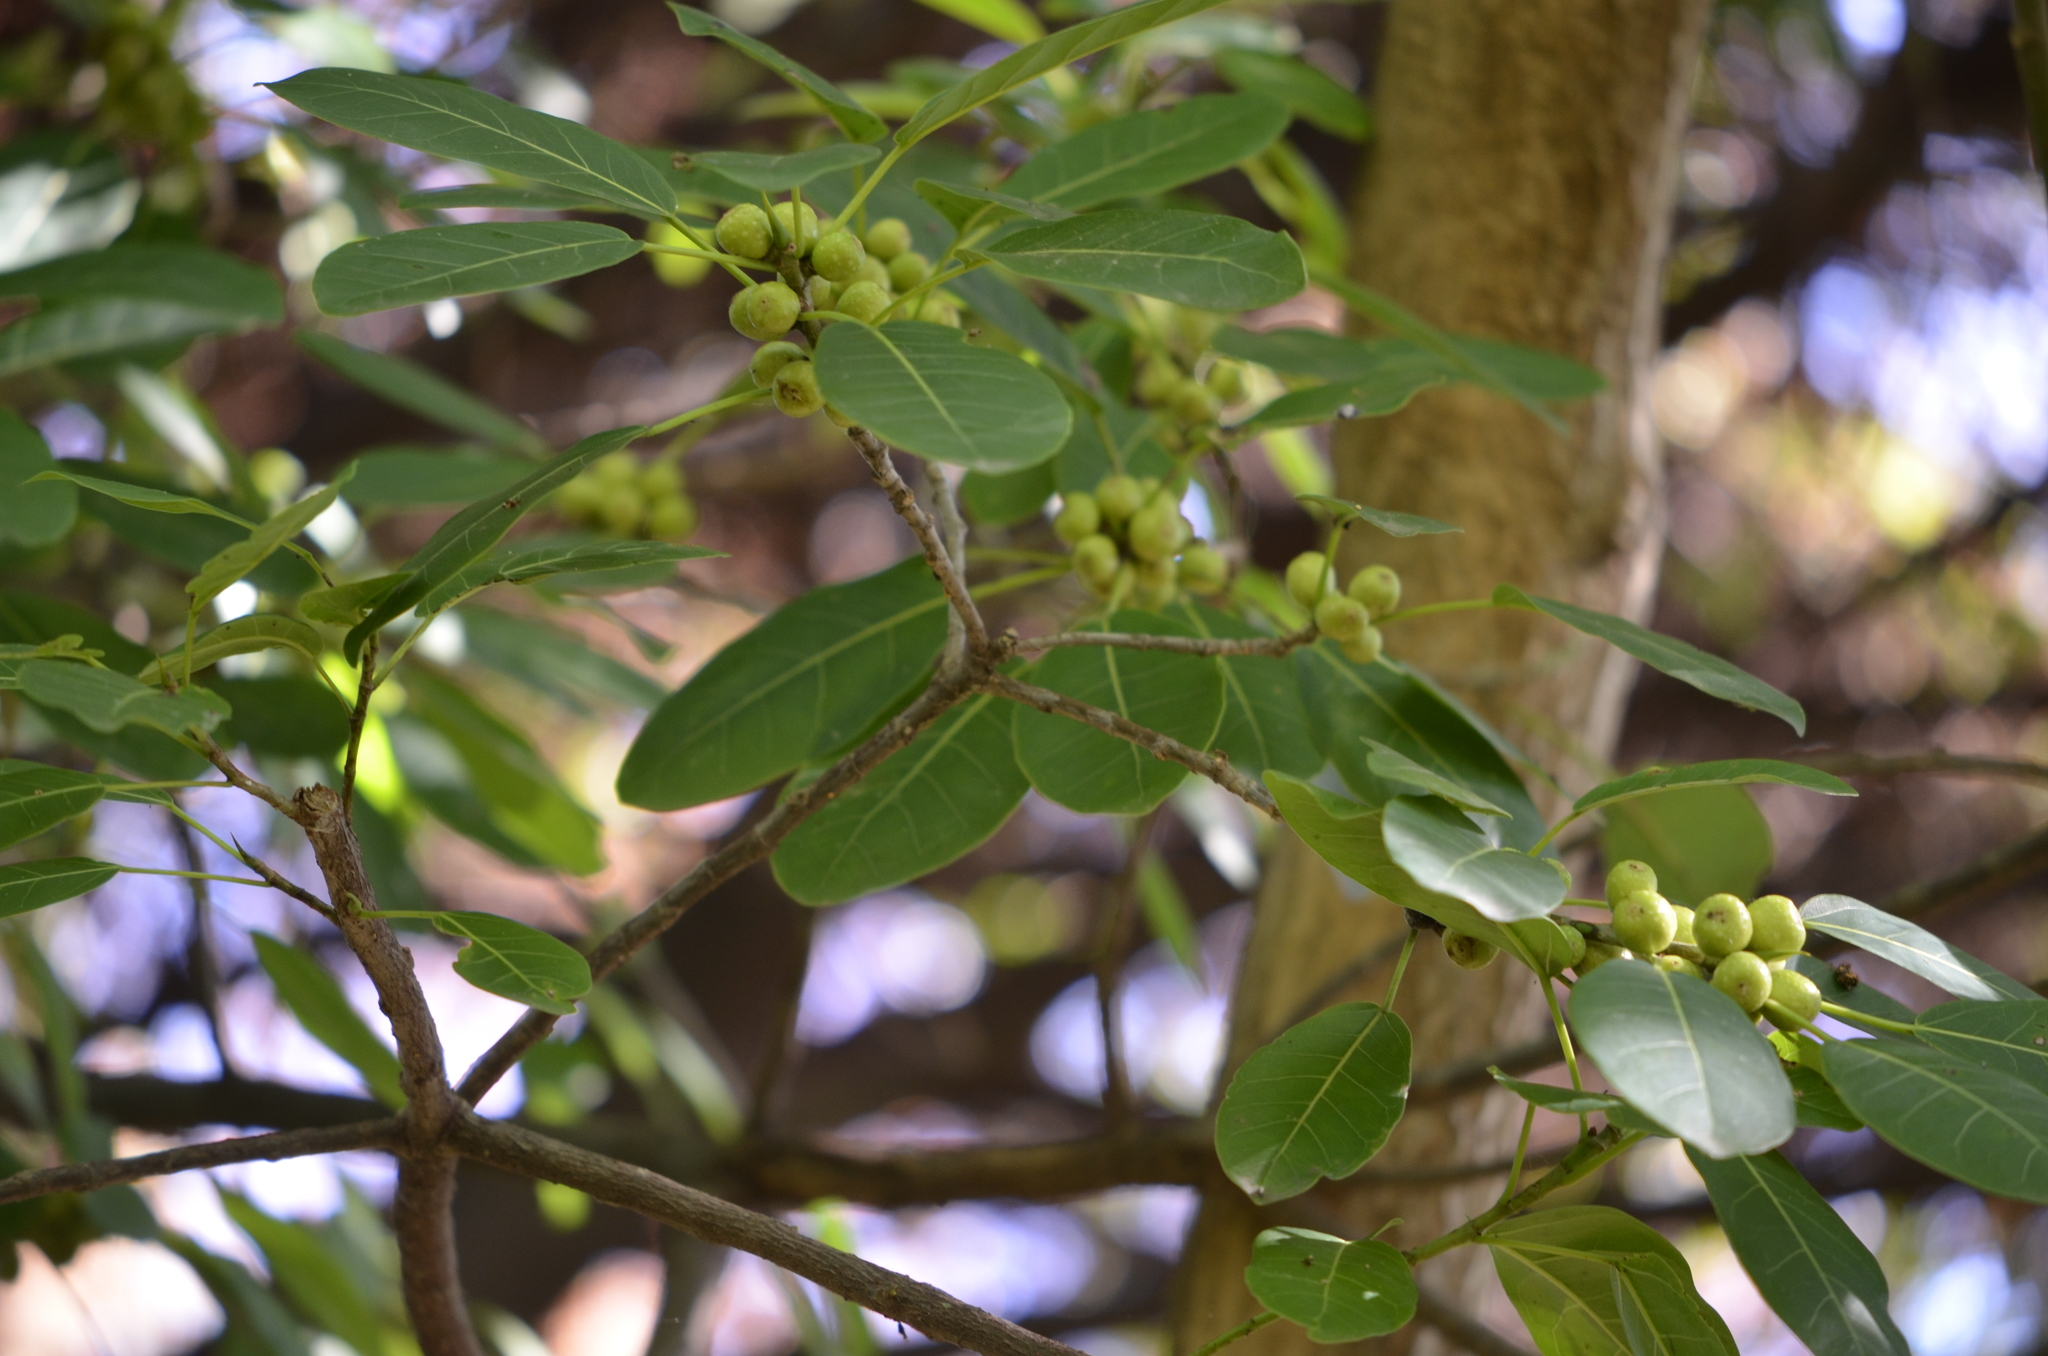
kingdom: Plantae
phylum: Tracheophyta
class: Magnoliopsida
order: Rosales
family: Moraceae
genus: Ficus
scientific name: Ficus luschnathiana
